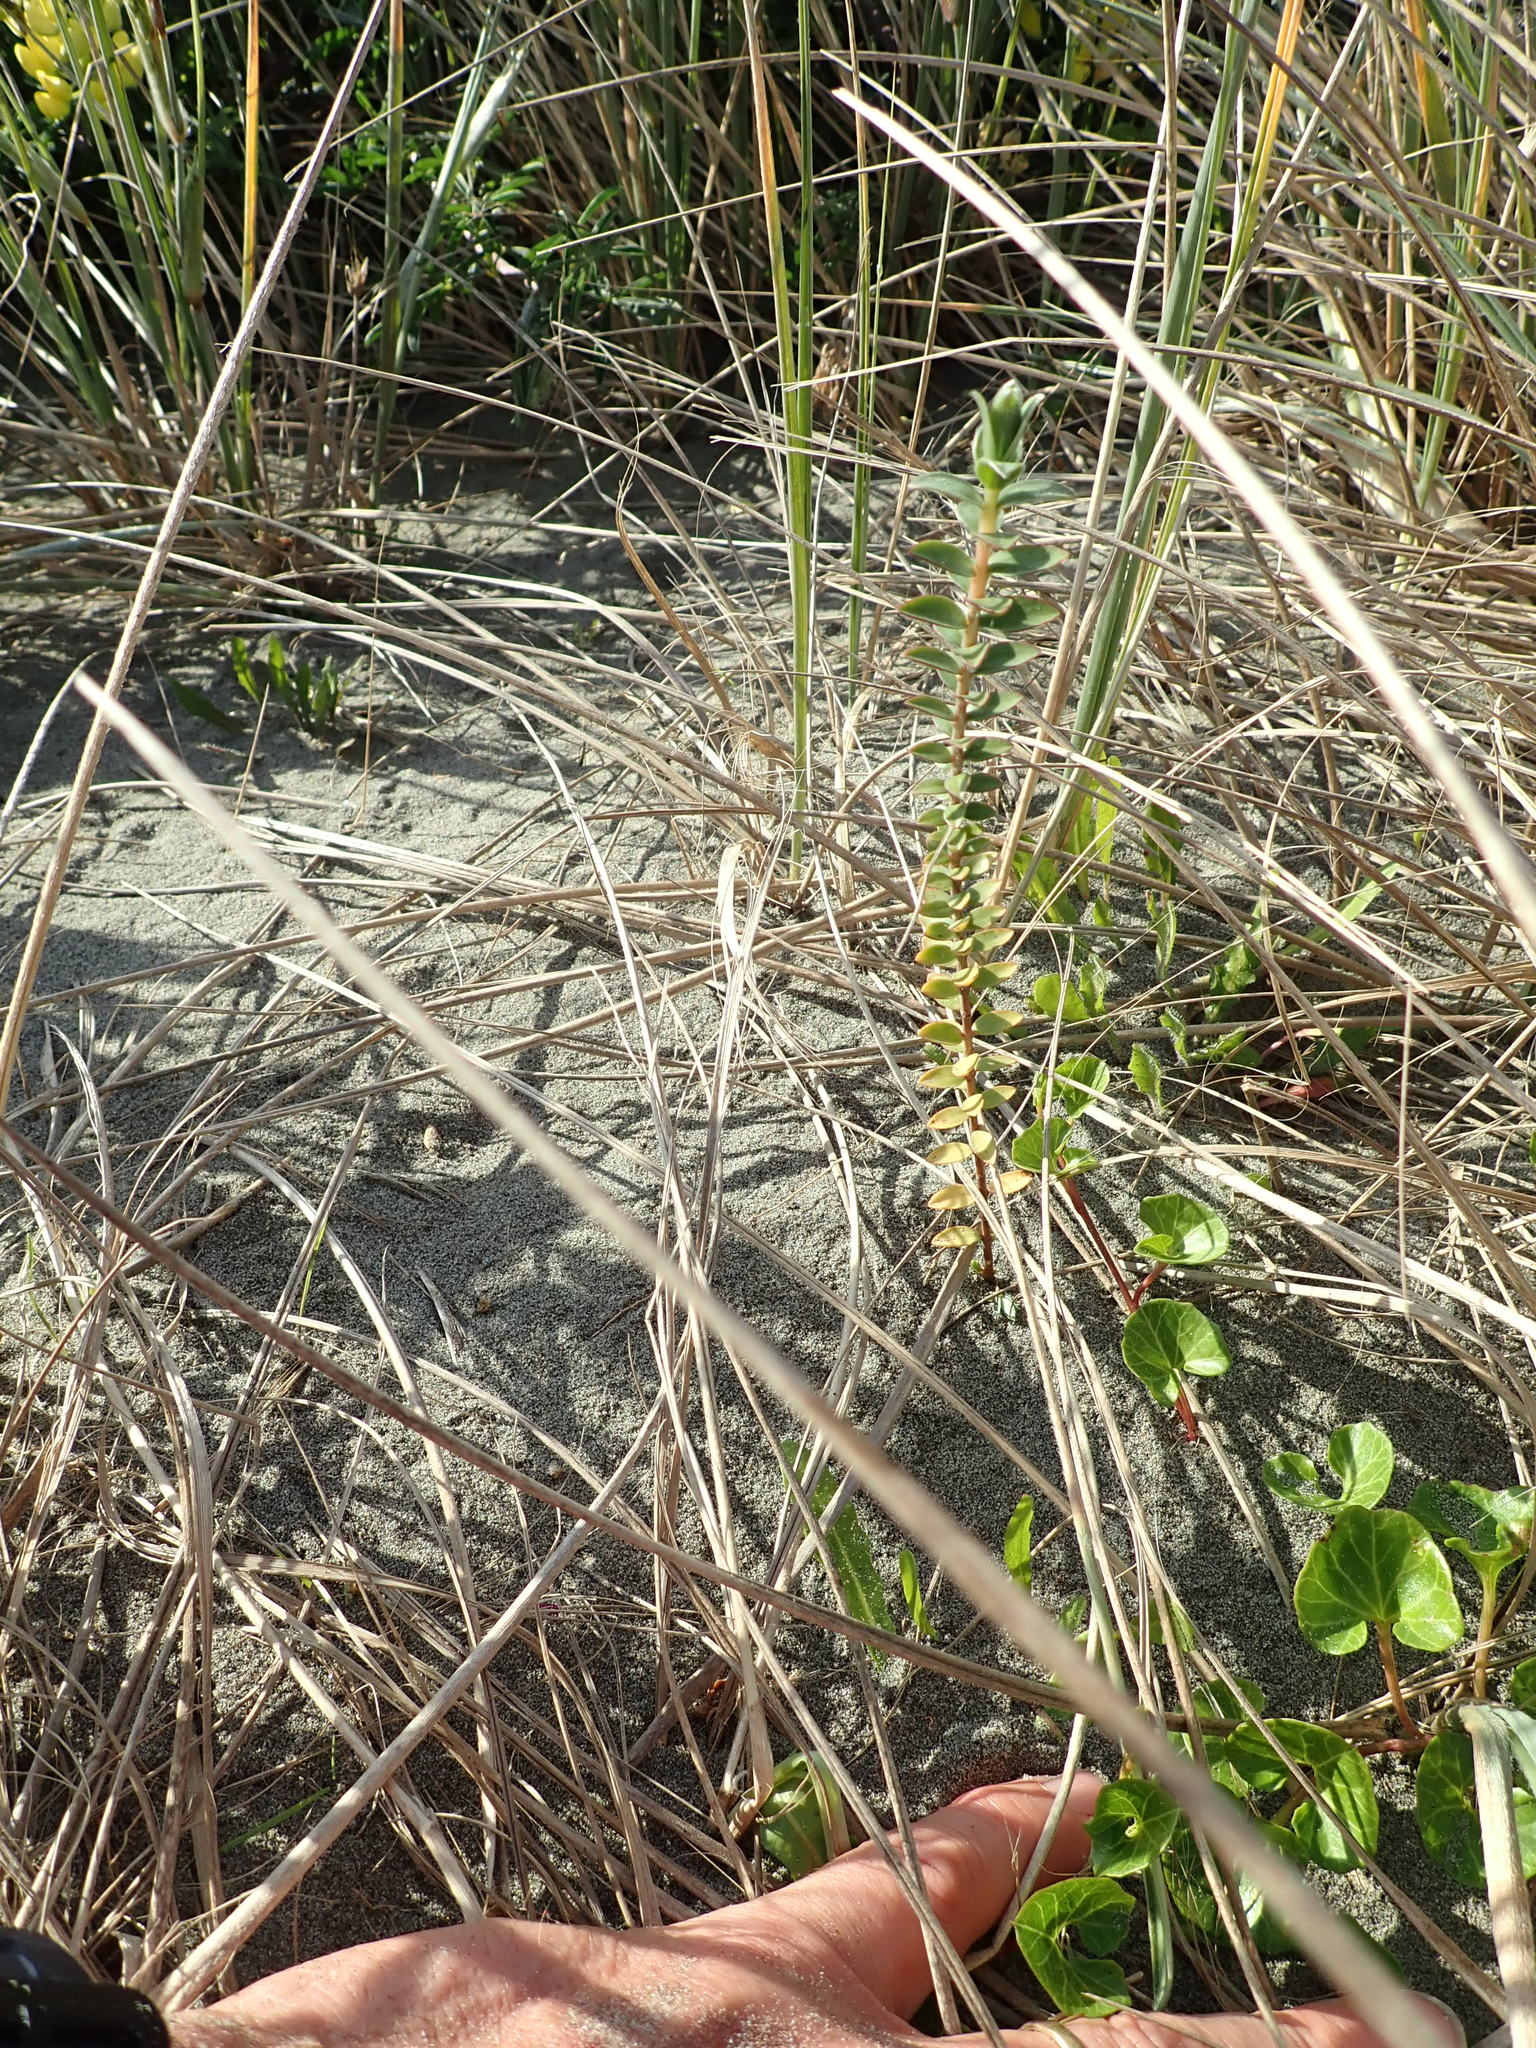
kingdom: Plantae
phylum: Tracheophyta
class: Magnoliopsida
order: Malvales
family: Thymelaeaceae
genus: Pimelea
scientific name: Pimelea villosa
